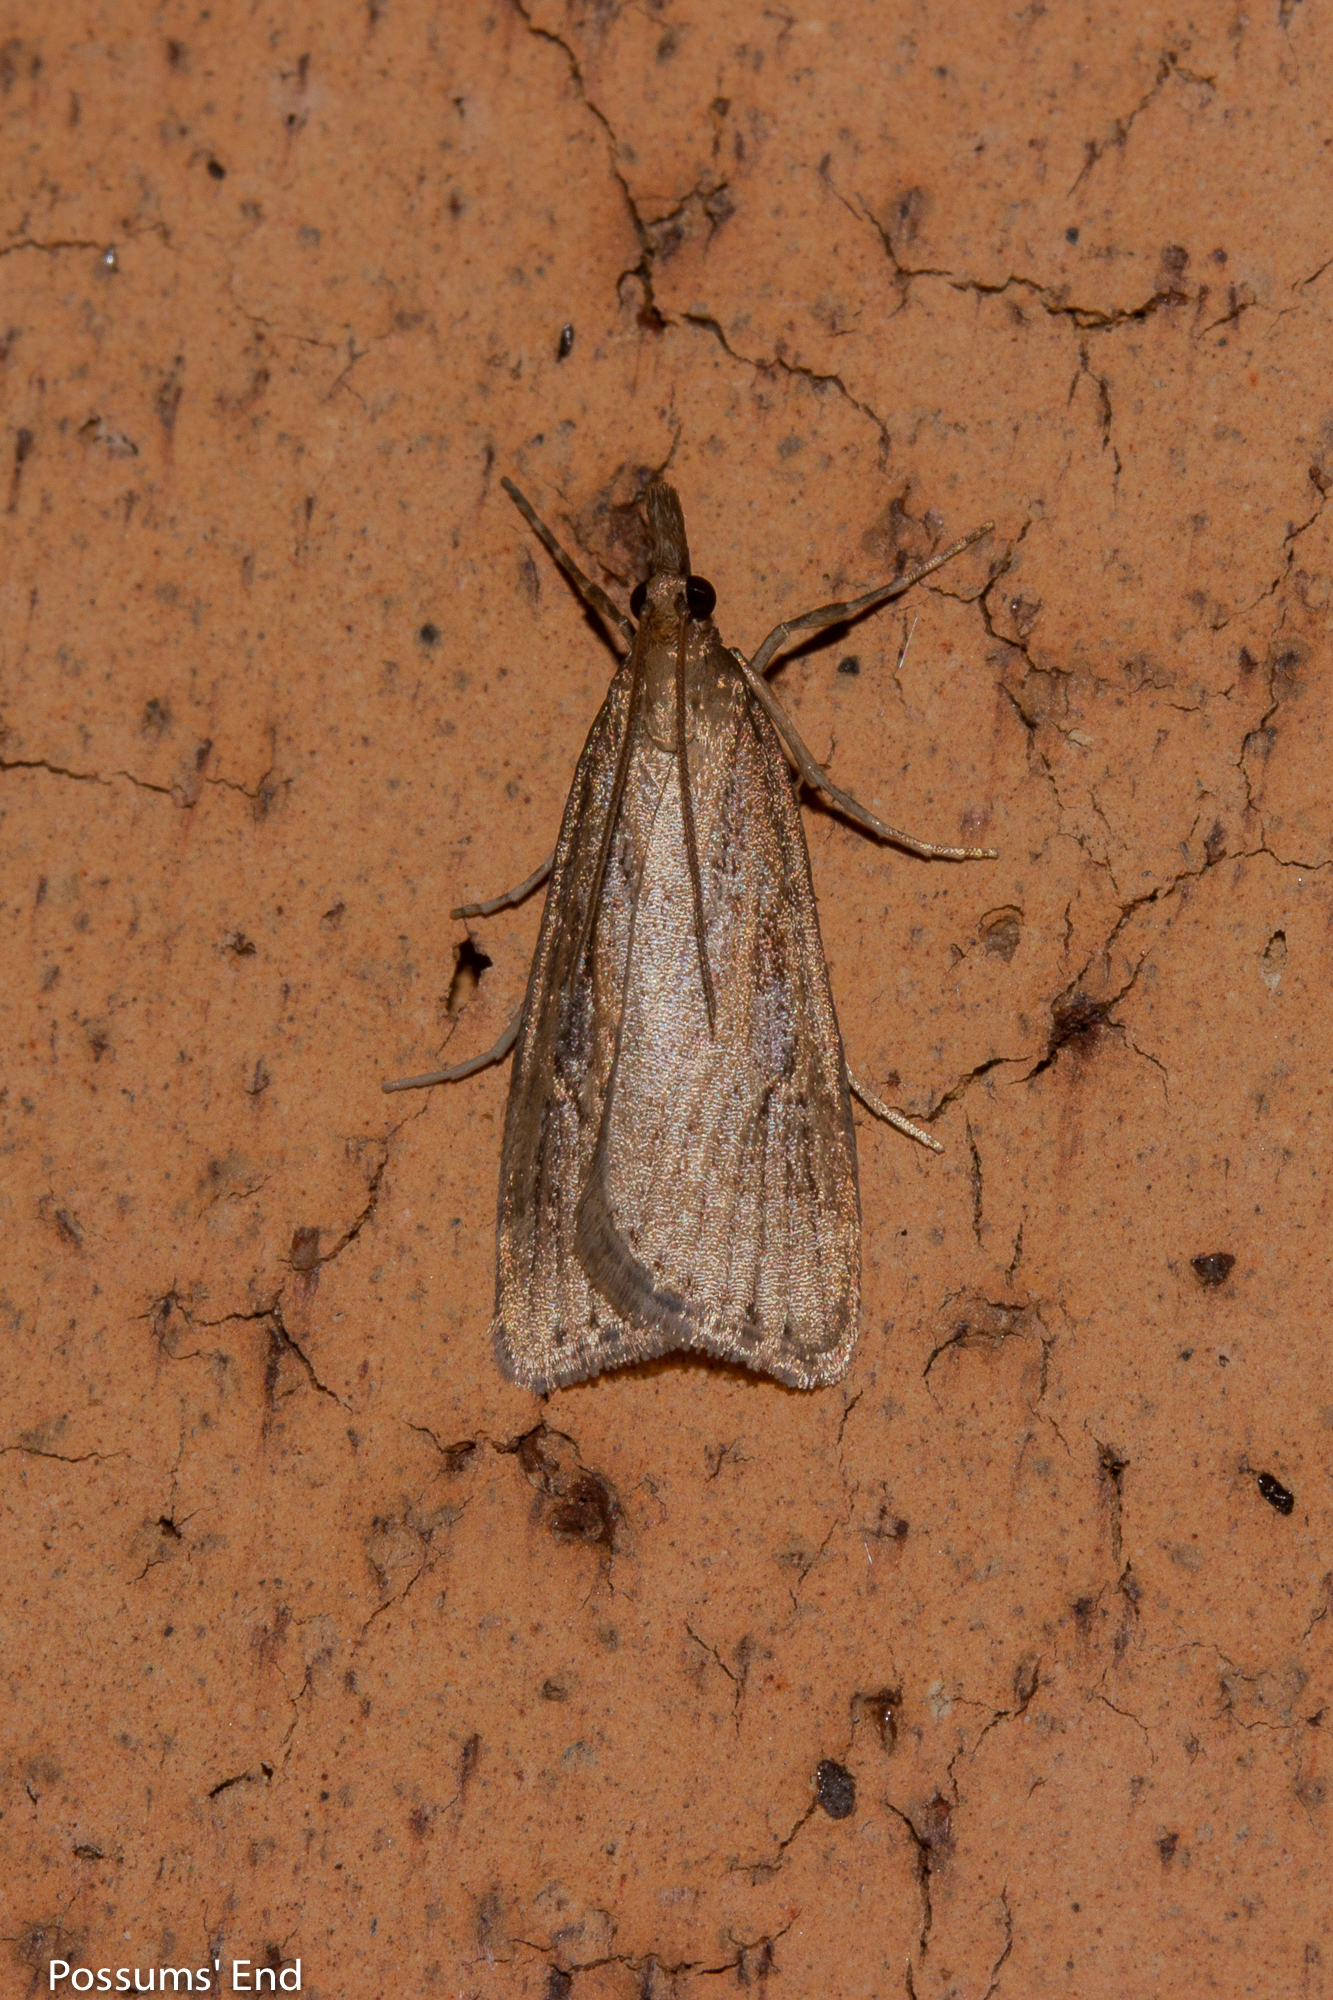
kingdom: Animalia
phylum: Arthropoda
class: Insecta
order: Lepidoptera
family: Crambidae
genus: Eudonia
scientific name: Eudonia octophora
